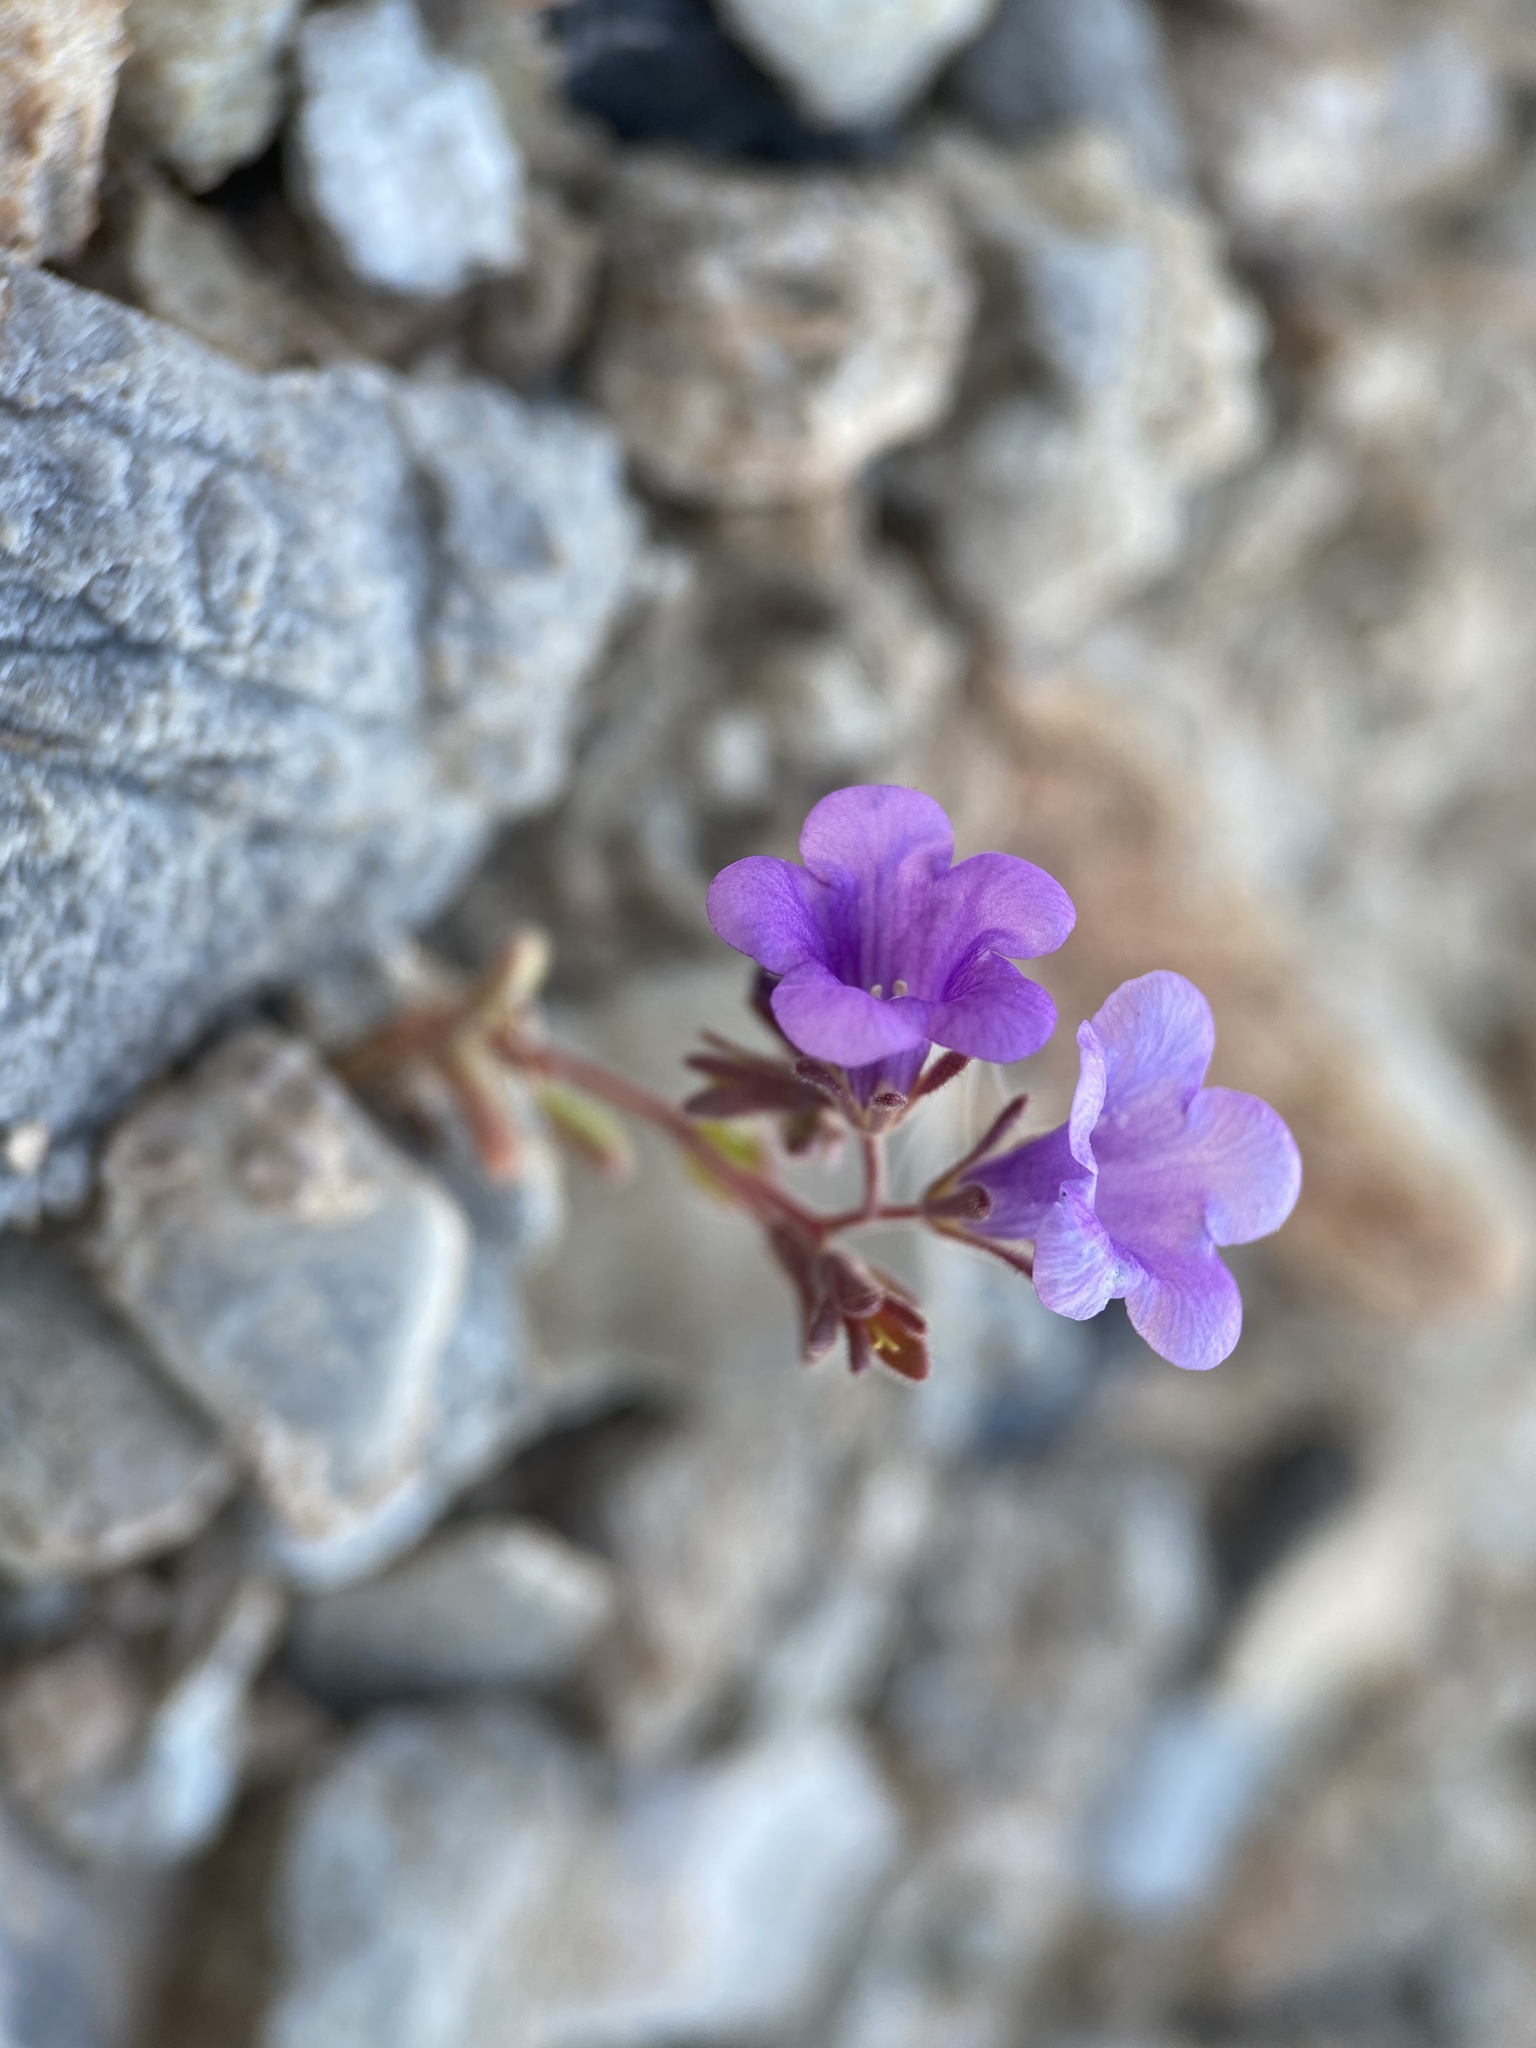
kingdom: Plantae
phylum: Tracheophyta
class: Magnoliopsida
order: Boraginales
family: Hydrophyllaceae
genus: Phacelia
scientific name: Phacelia pulchella
